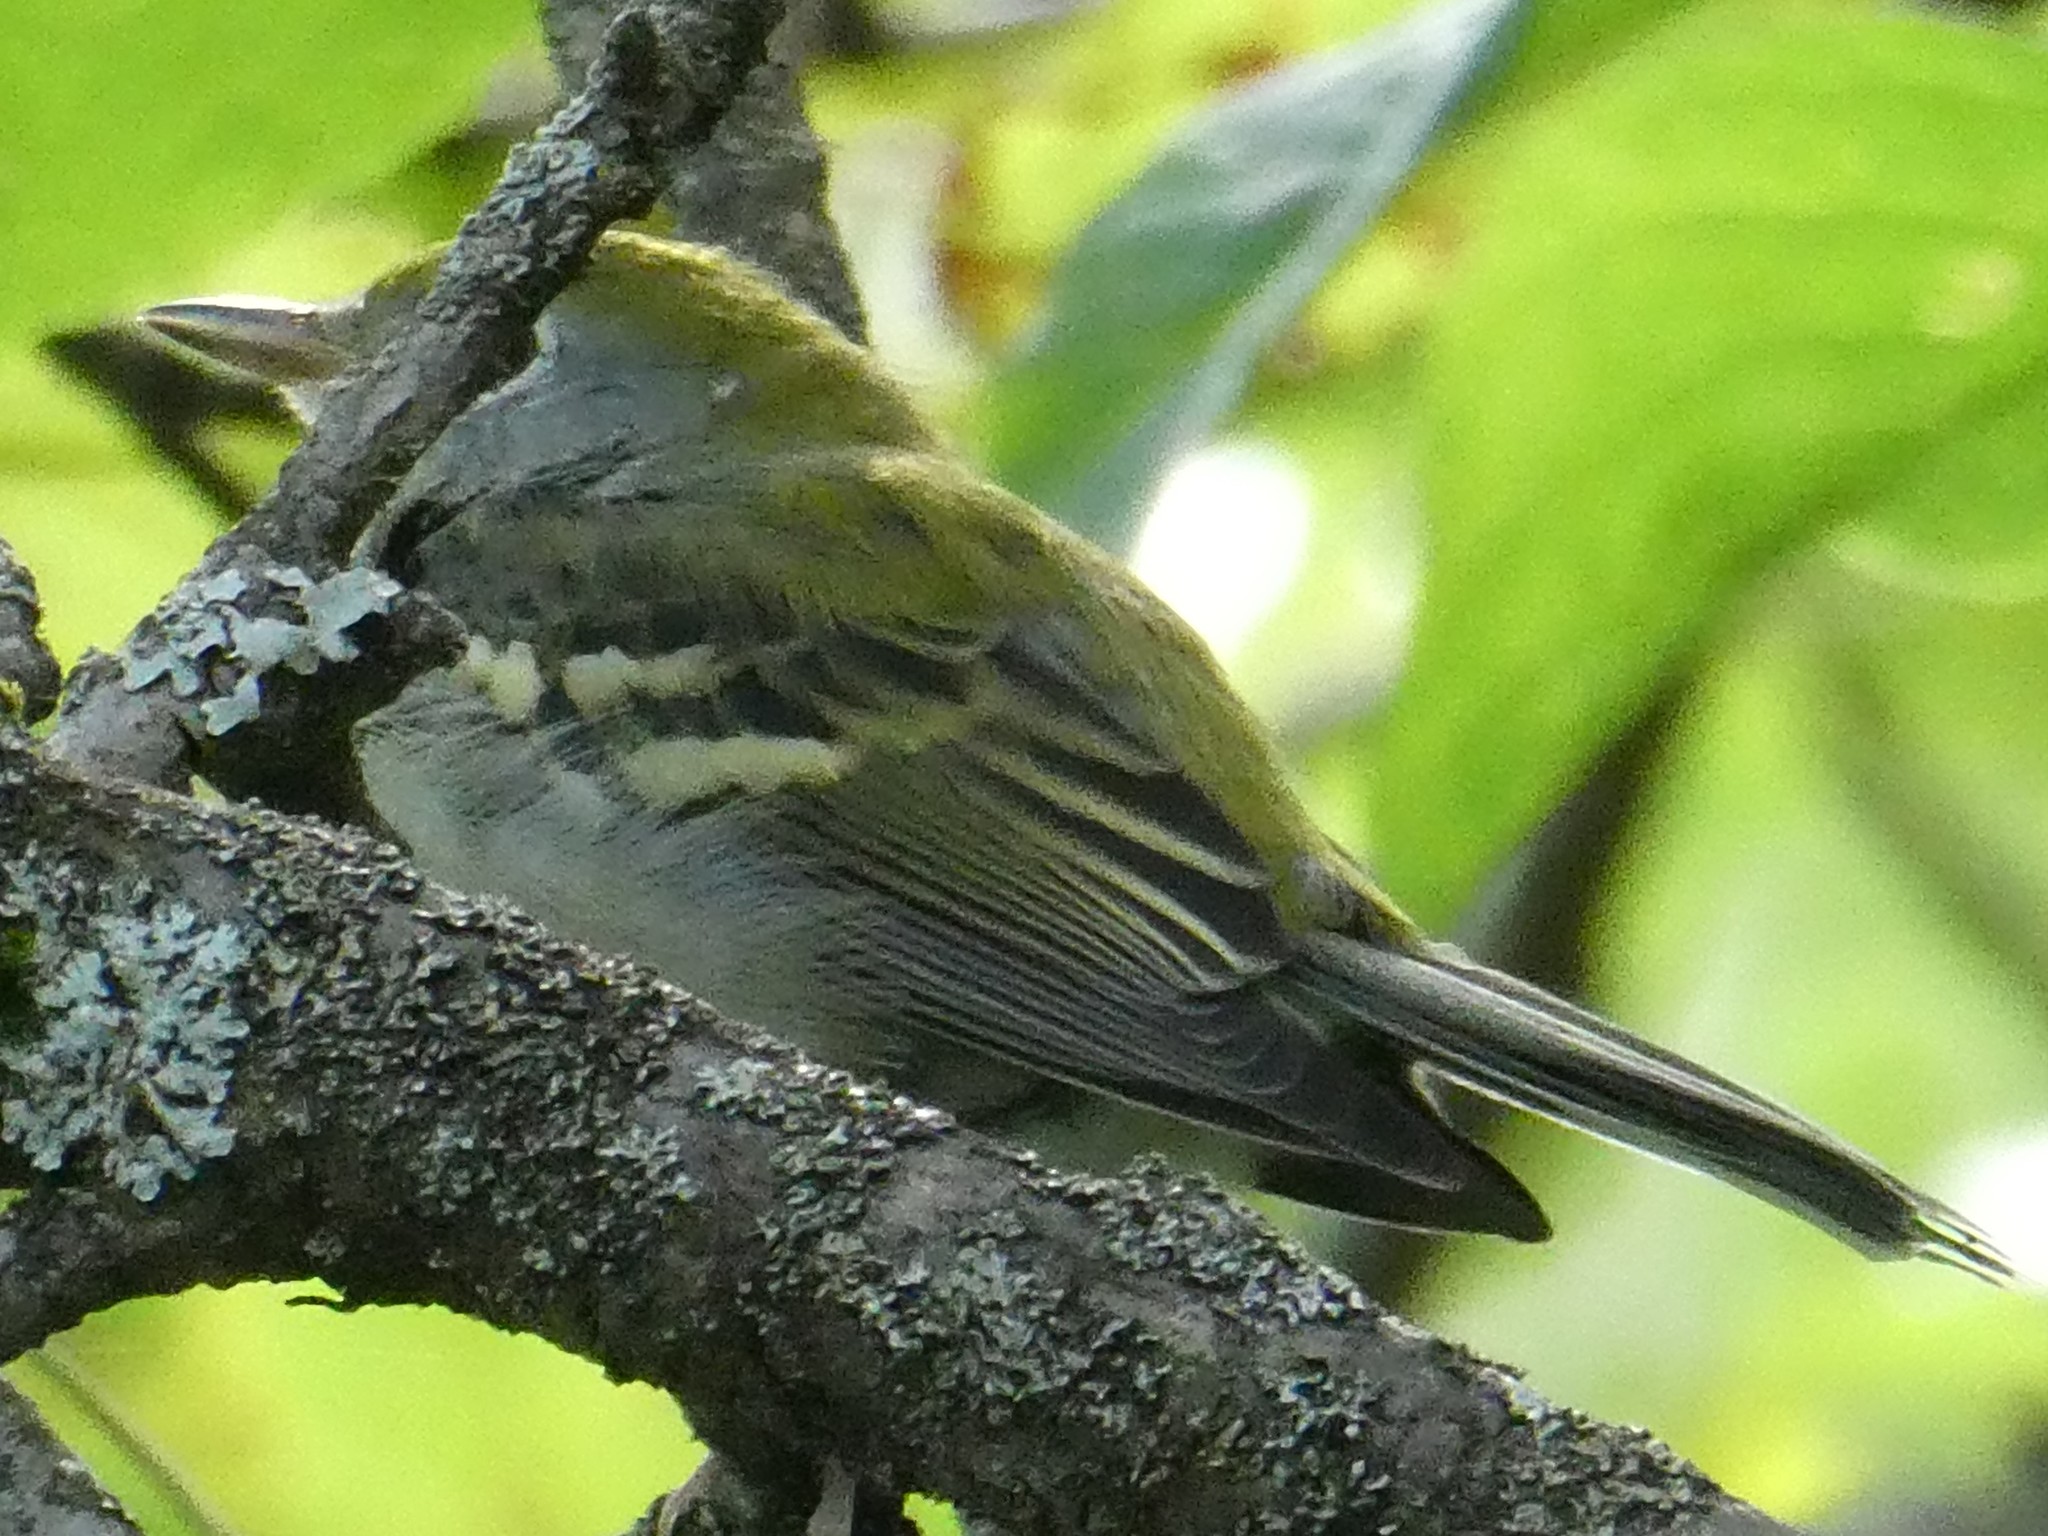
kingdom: Animalia
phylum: Chordata
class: Aves
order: Passeriformes
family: Parulidae
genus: Setophaga
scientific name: Setophaga pensylvanica
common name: Chestnut-sided warbler
